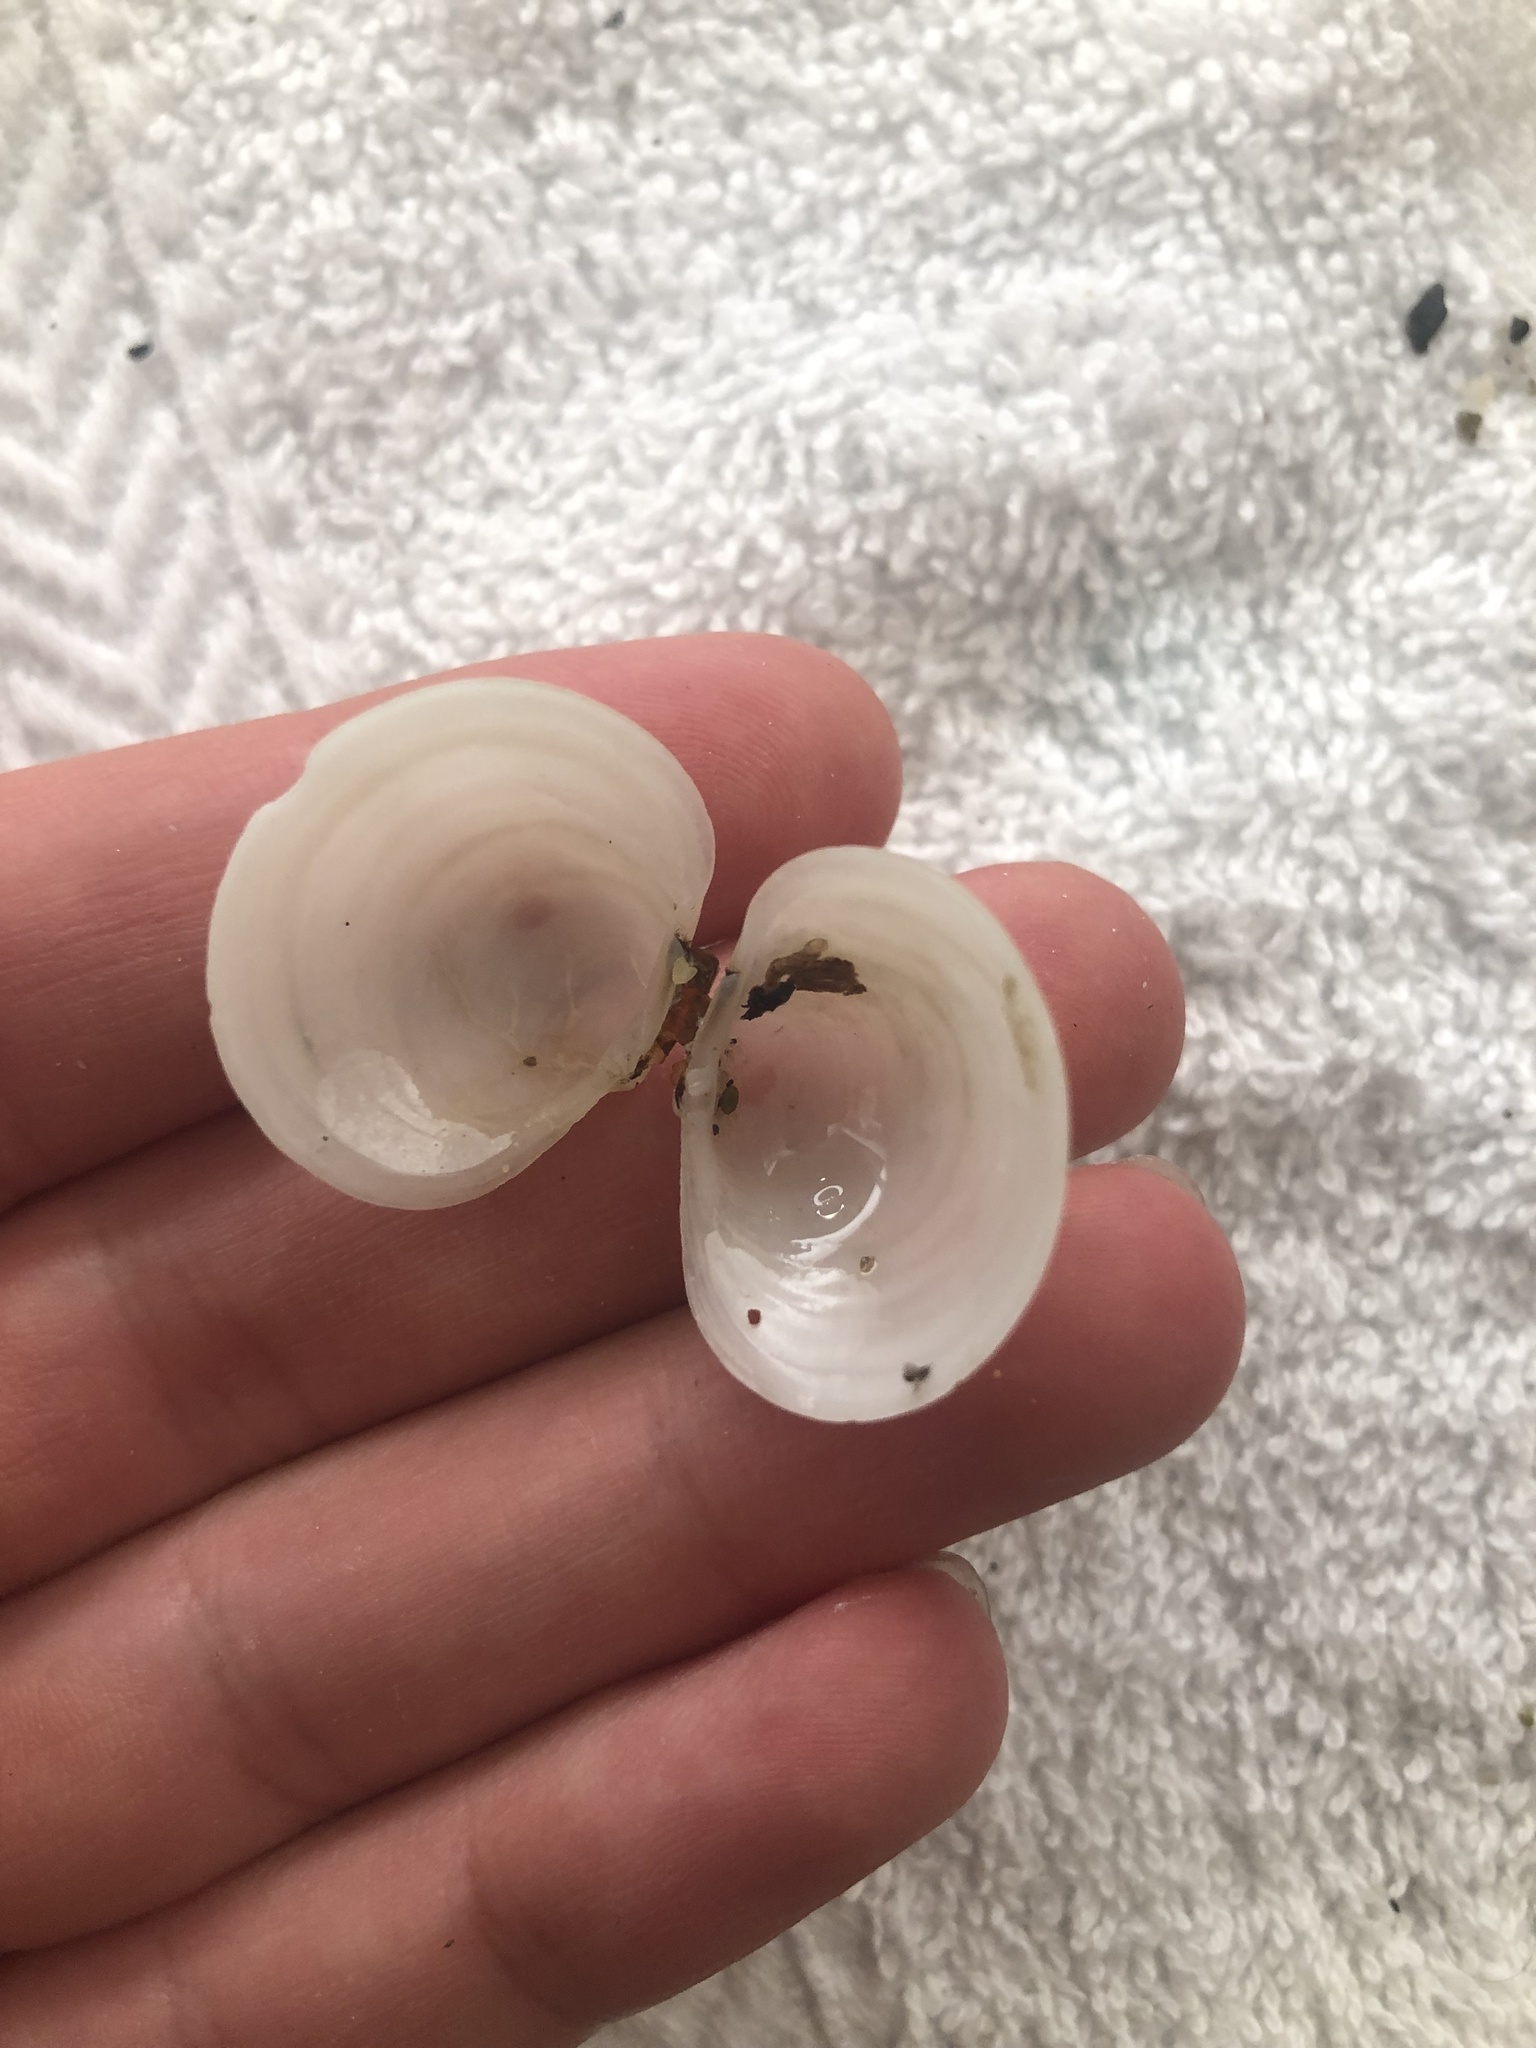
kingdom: Animalia
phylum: Mollusca
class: Bivalvia
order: Venerida
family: Ungulinidae
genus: Zemysina
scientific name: Zemysina orbella
